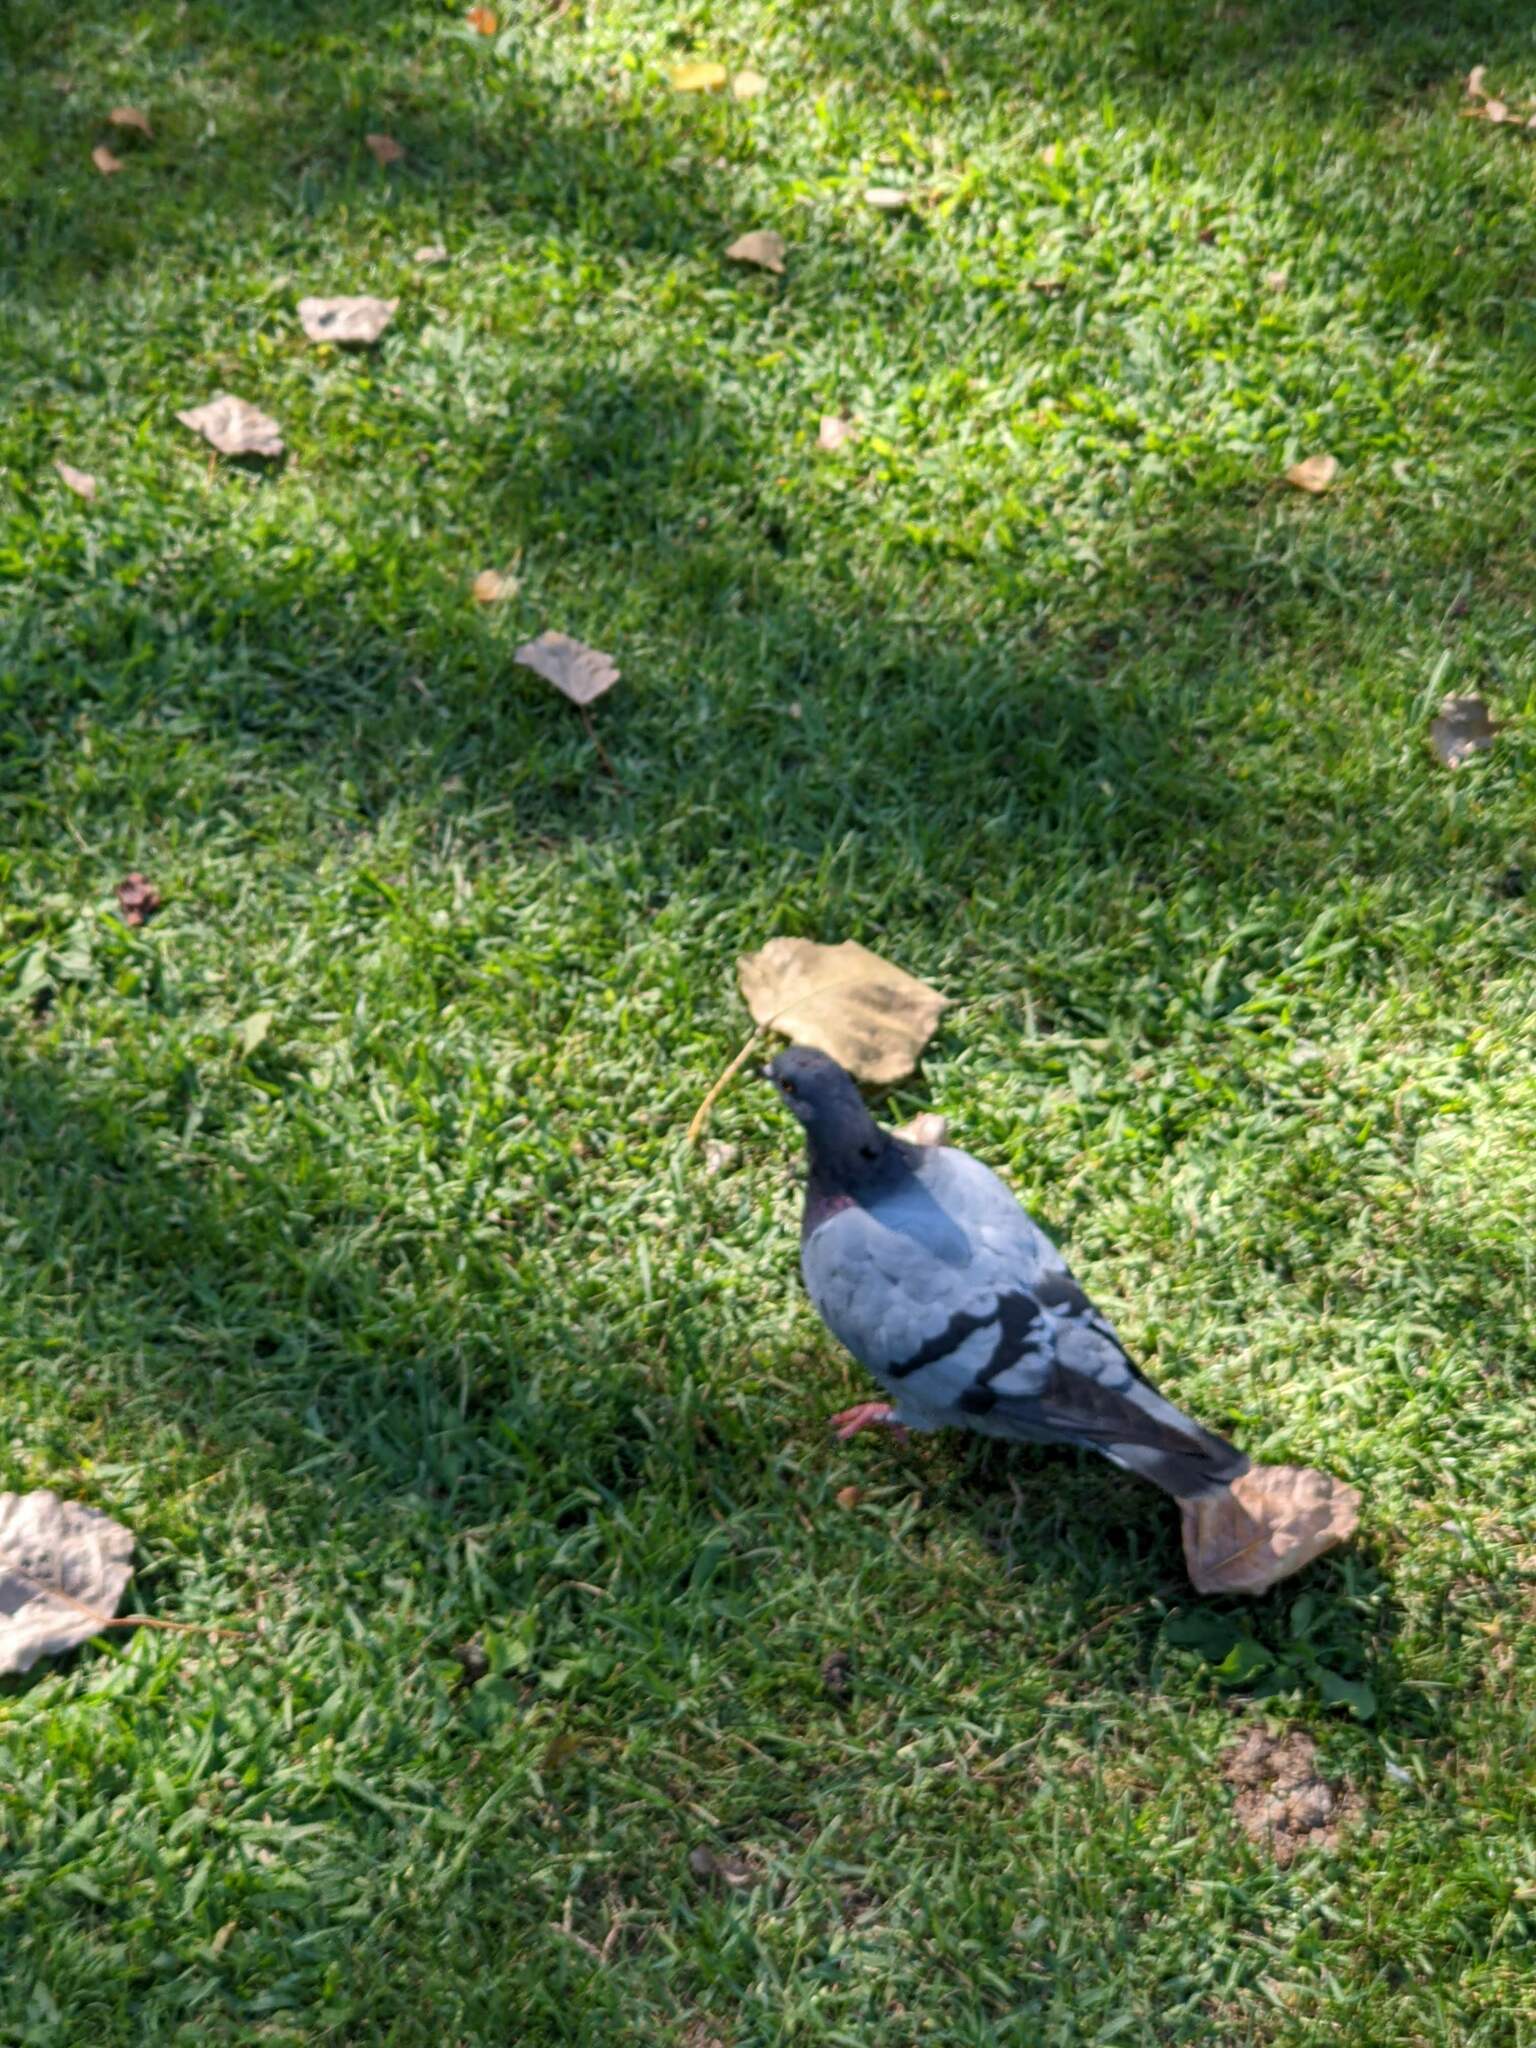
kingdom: Animalia
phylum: Chordata
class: Aves
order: Columbiformes
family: Columbidae
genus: Columba
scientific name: Columba livia
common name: Rock pigeon
